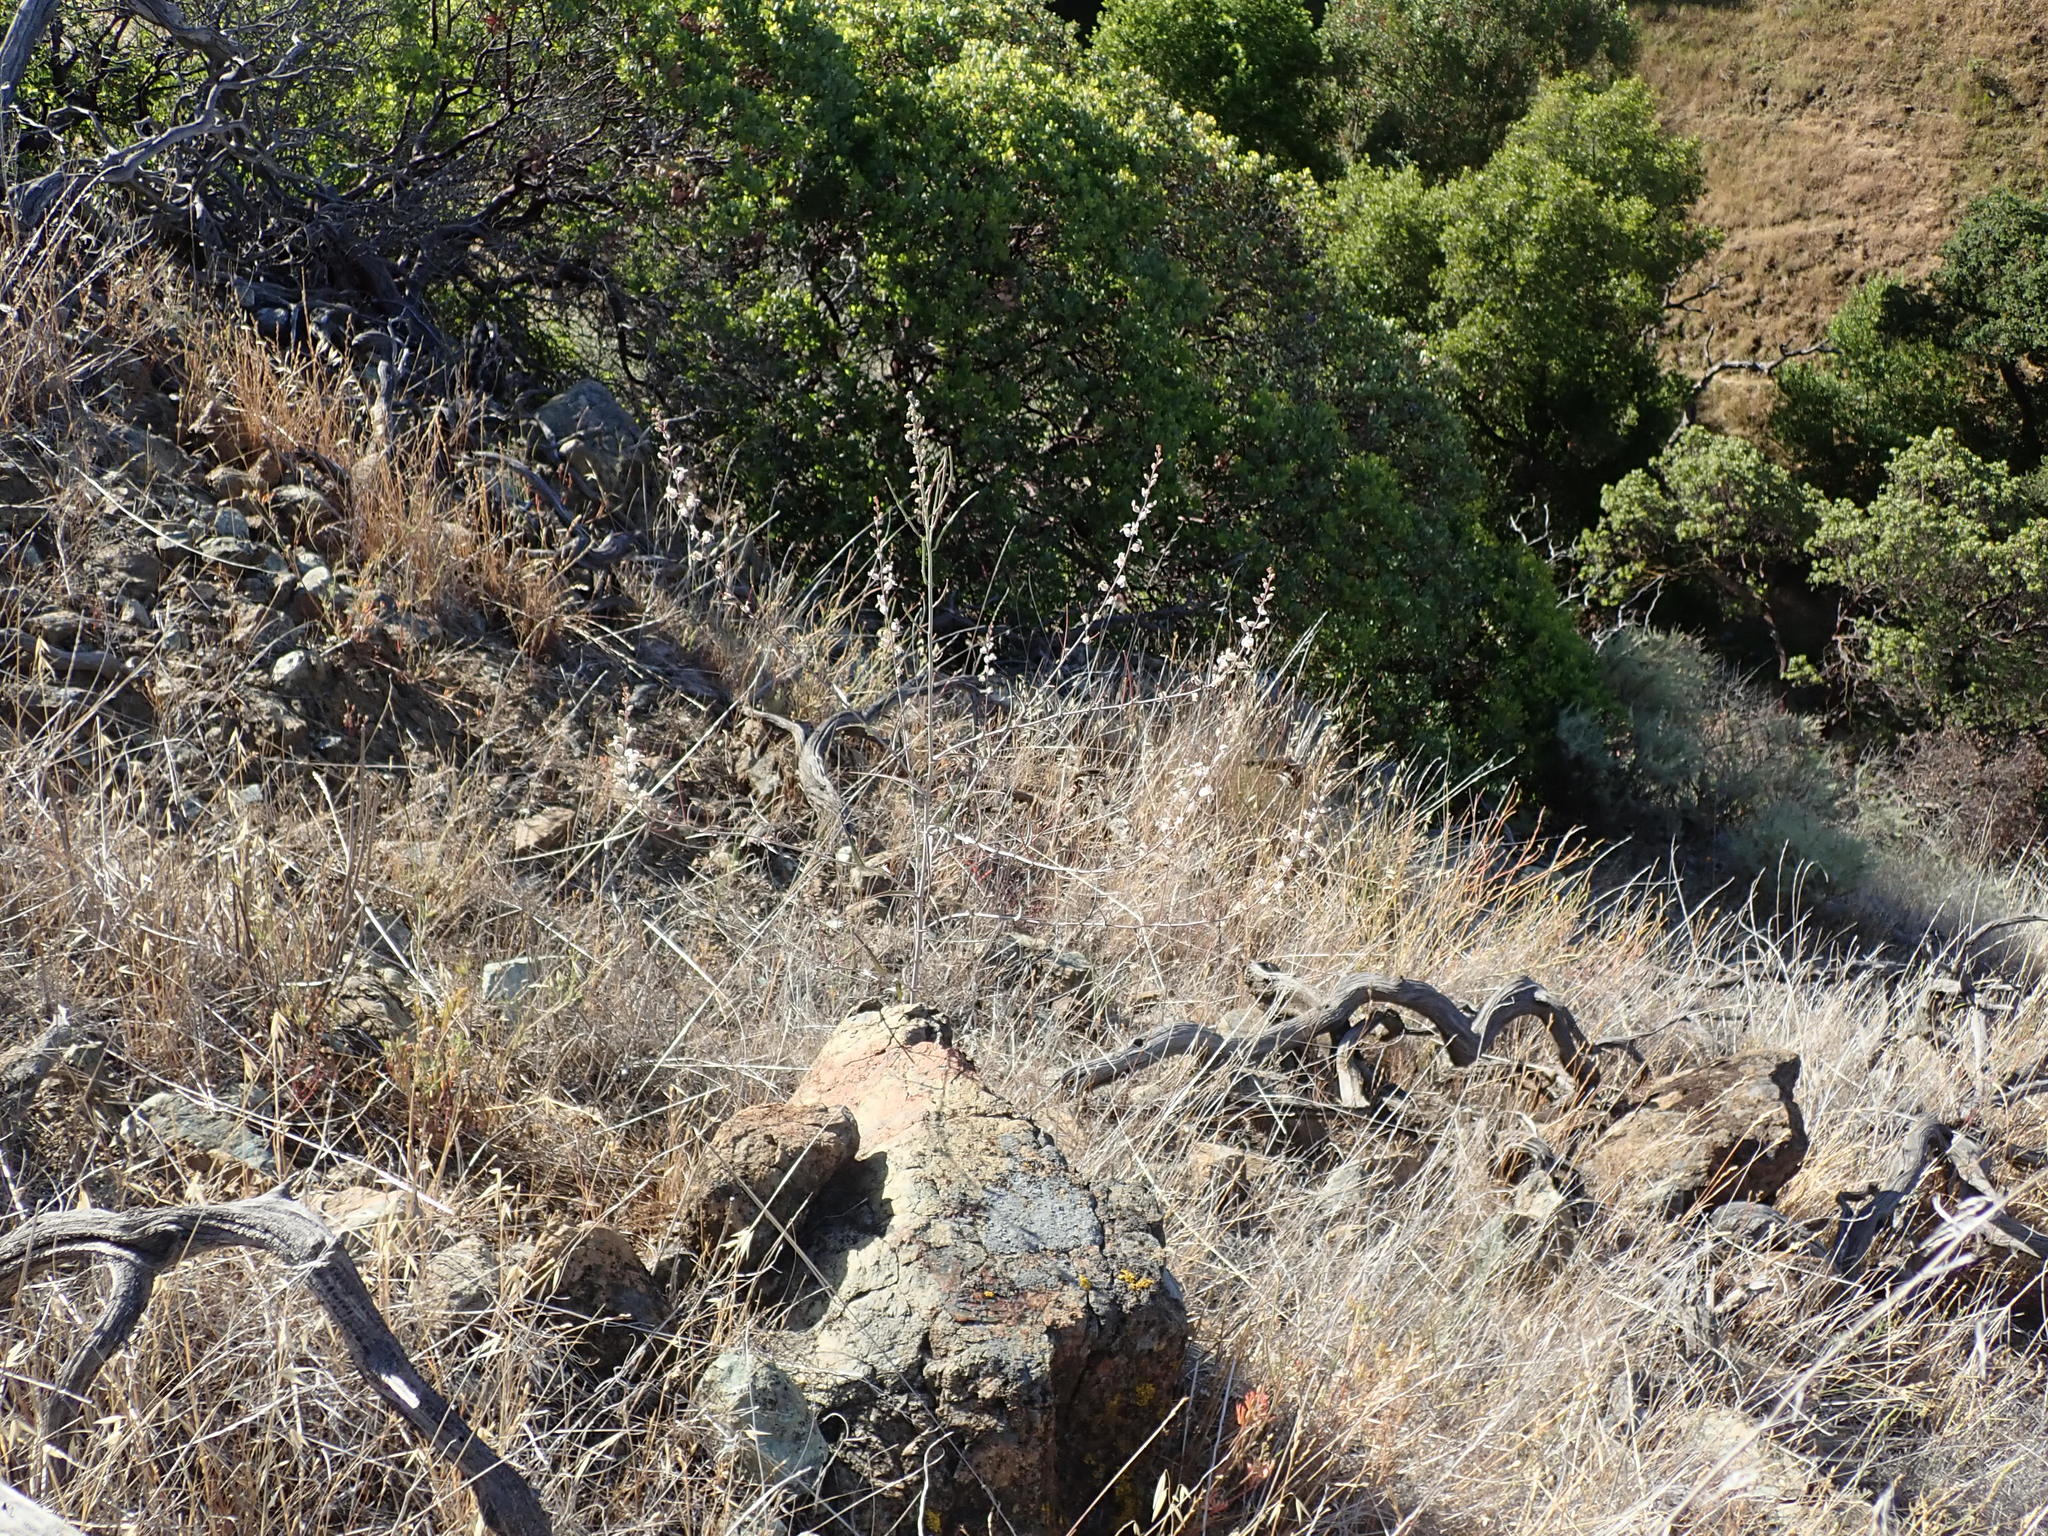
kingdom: Plantae
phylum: Tracheophyta
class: Magnoliopsida
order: Brassicales
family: Brassicaceae
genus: Streptanthus
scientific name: Streptanthus glandulosus
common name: Jewel-flower
